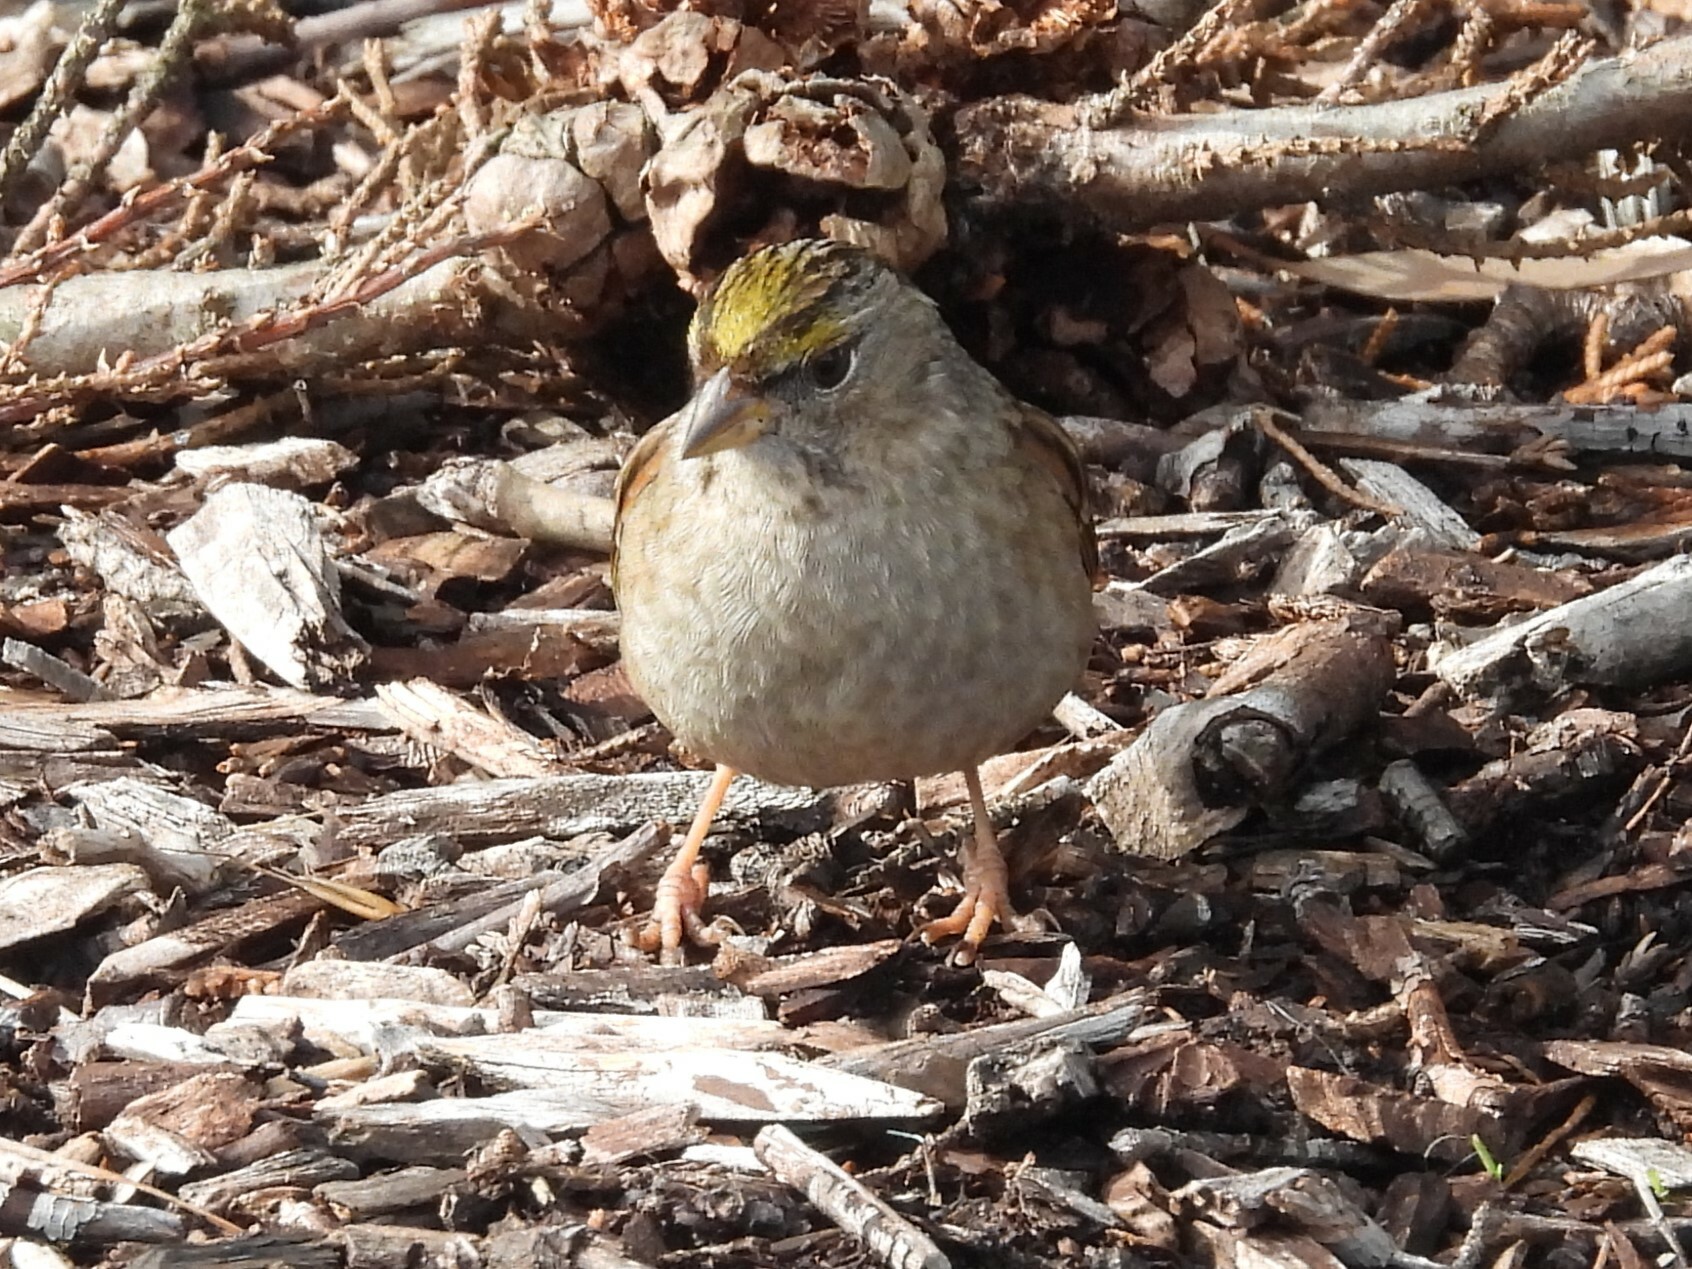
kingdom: Animalia
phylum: Chordata
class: Aves
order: Passeriformes
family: Passerellidae
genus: Zonotrichia
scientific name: Zonotrichia atricapilla
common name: Golden-crowned sparrow
